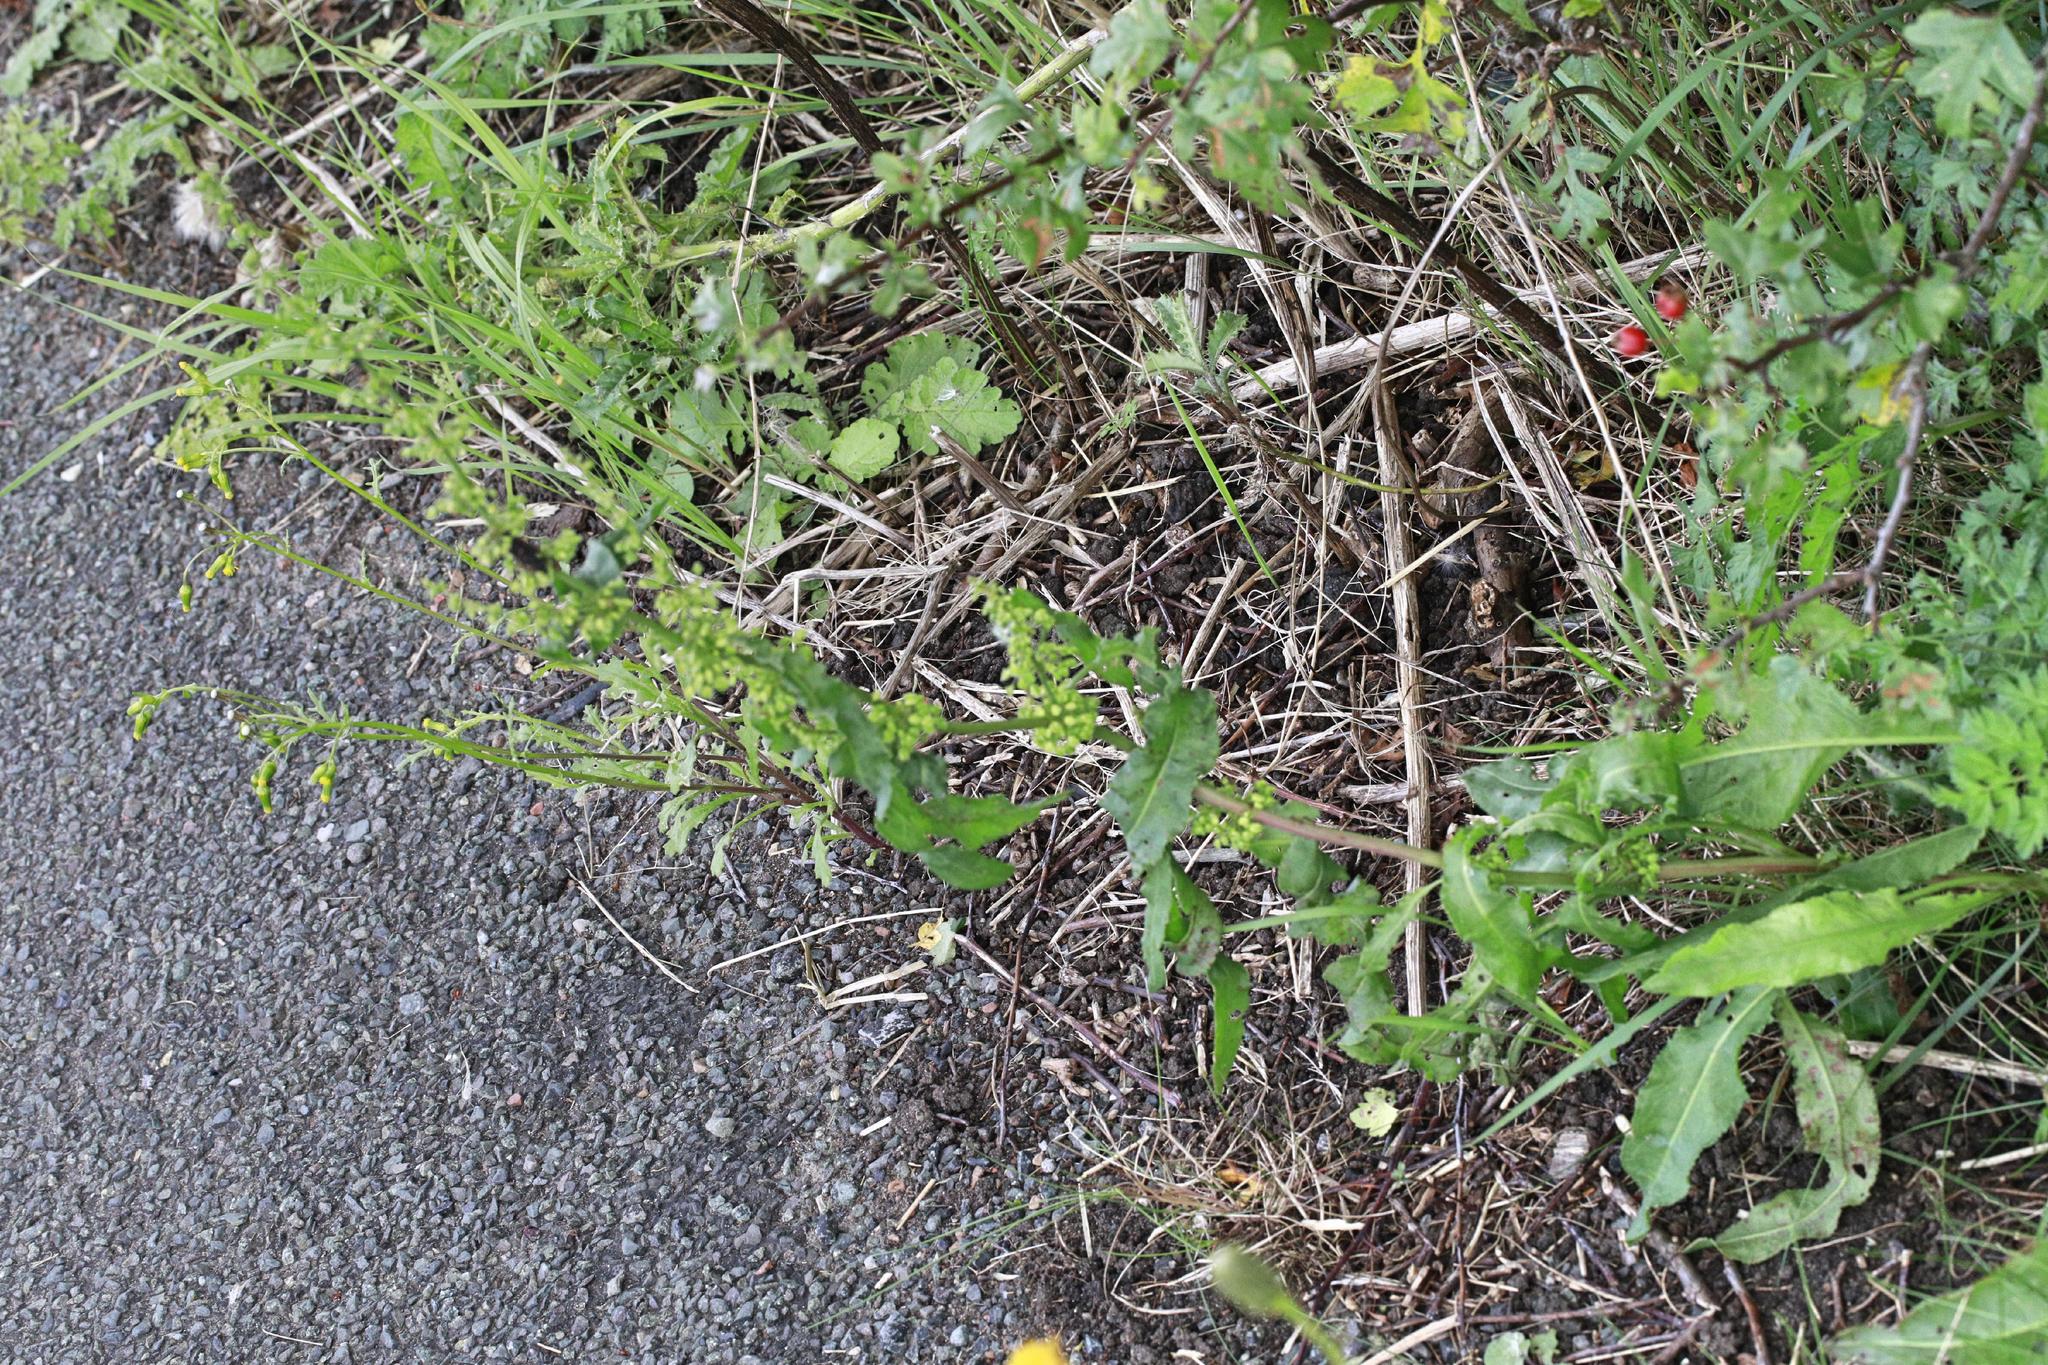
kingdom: Plantae
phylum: Tracheophyta
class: Magnoliopsida
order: Caryophyllales
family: Polygonaceae
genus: Rumex
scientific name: Rumex crispus
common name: Curled dock
